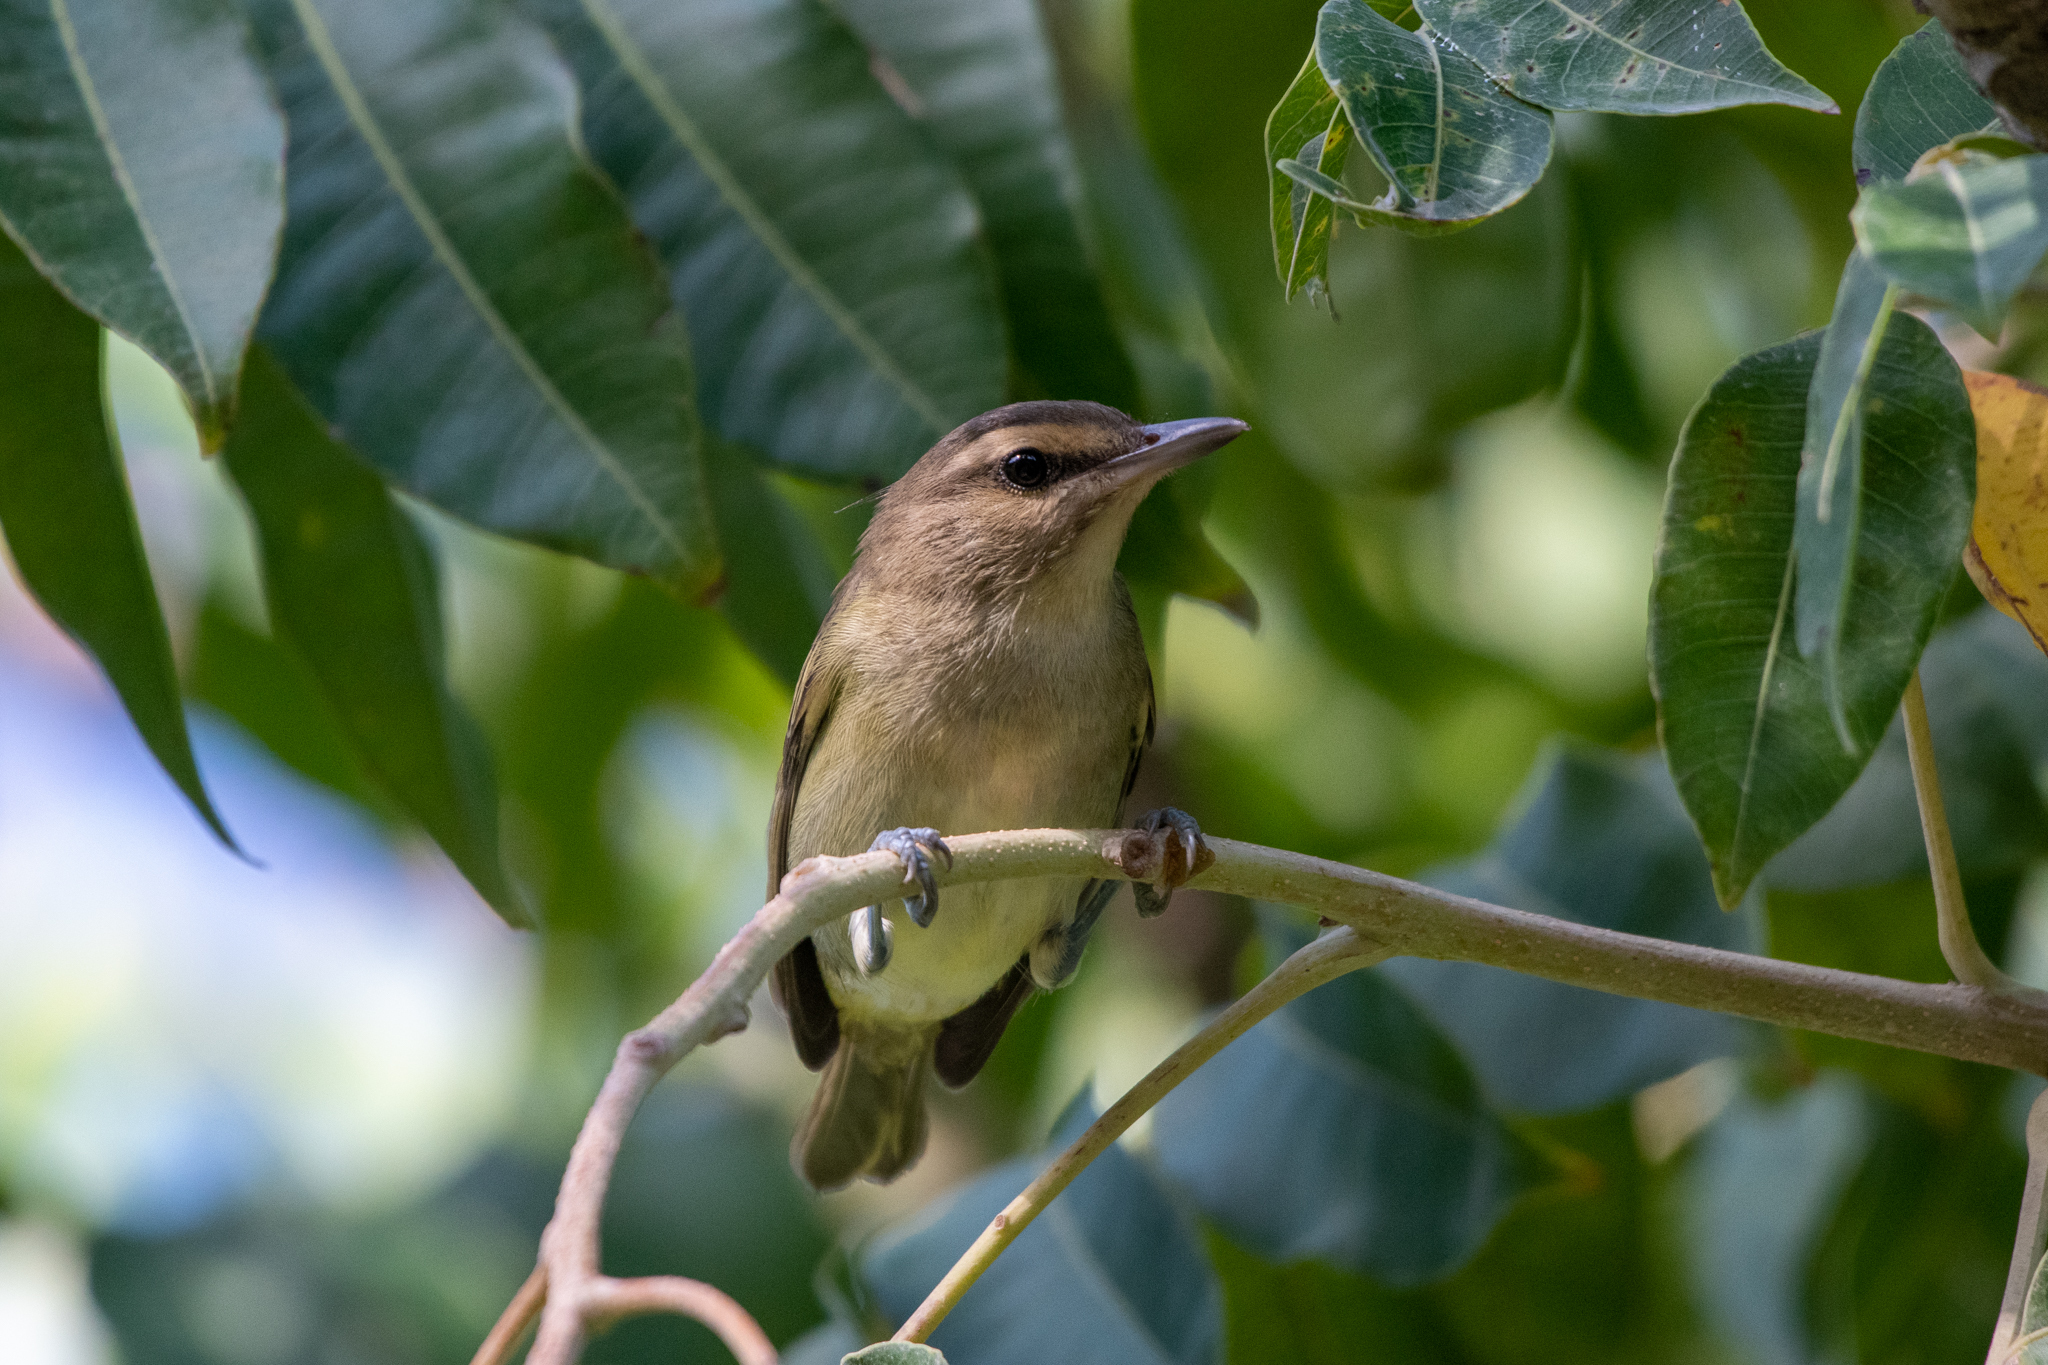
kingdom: Animalia
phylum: Chordata
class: Aves
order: Passeriformes
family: Vireonidae
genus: Vireo
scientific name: Vireo magister
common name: Yucatan vireo
